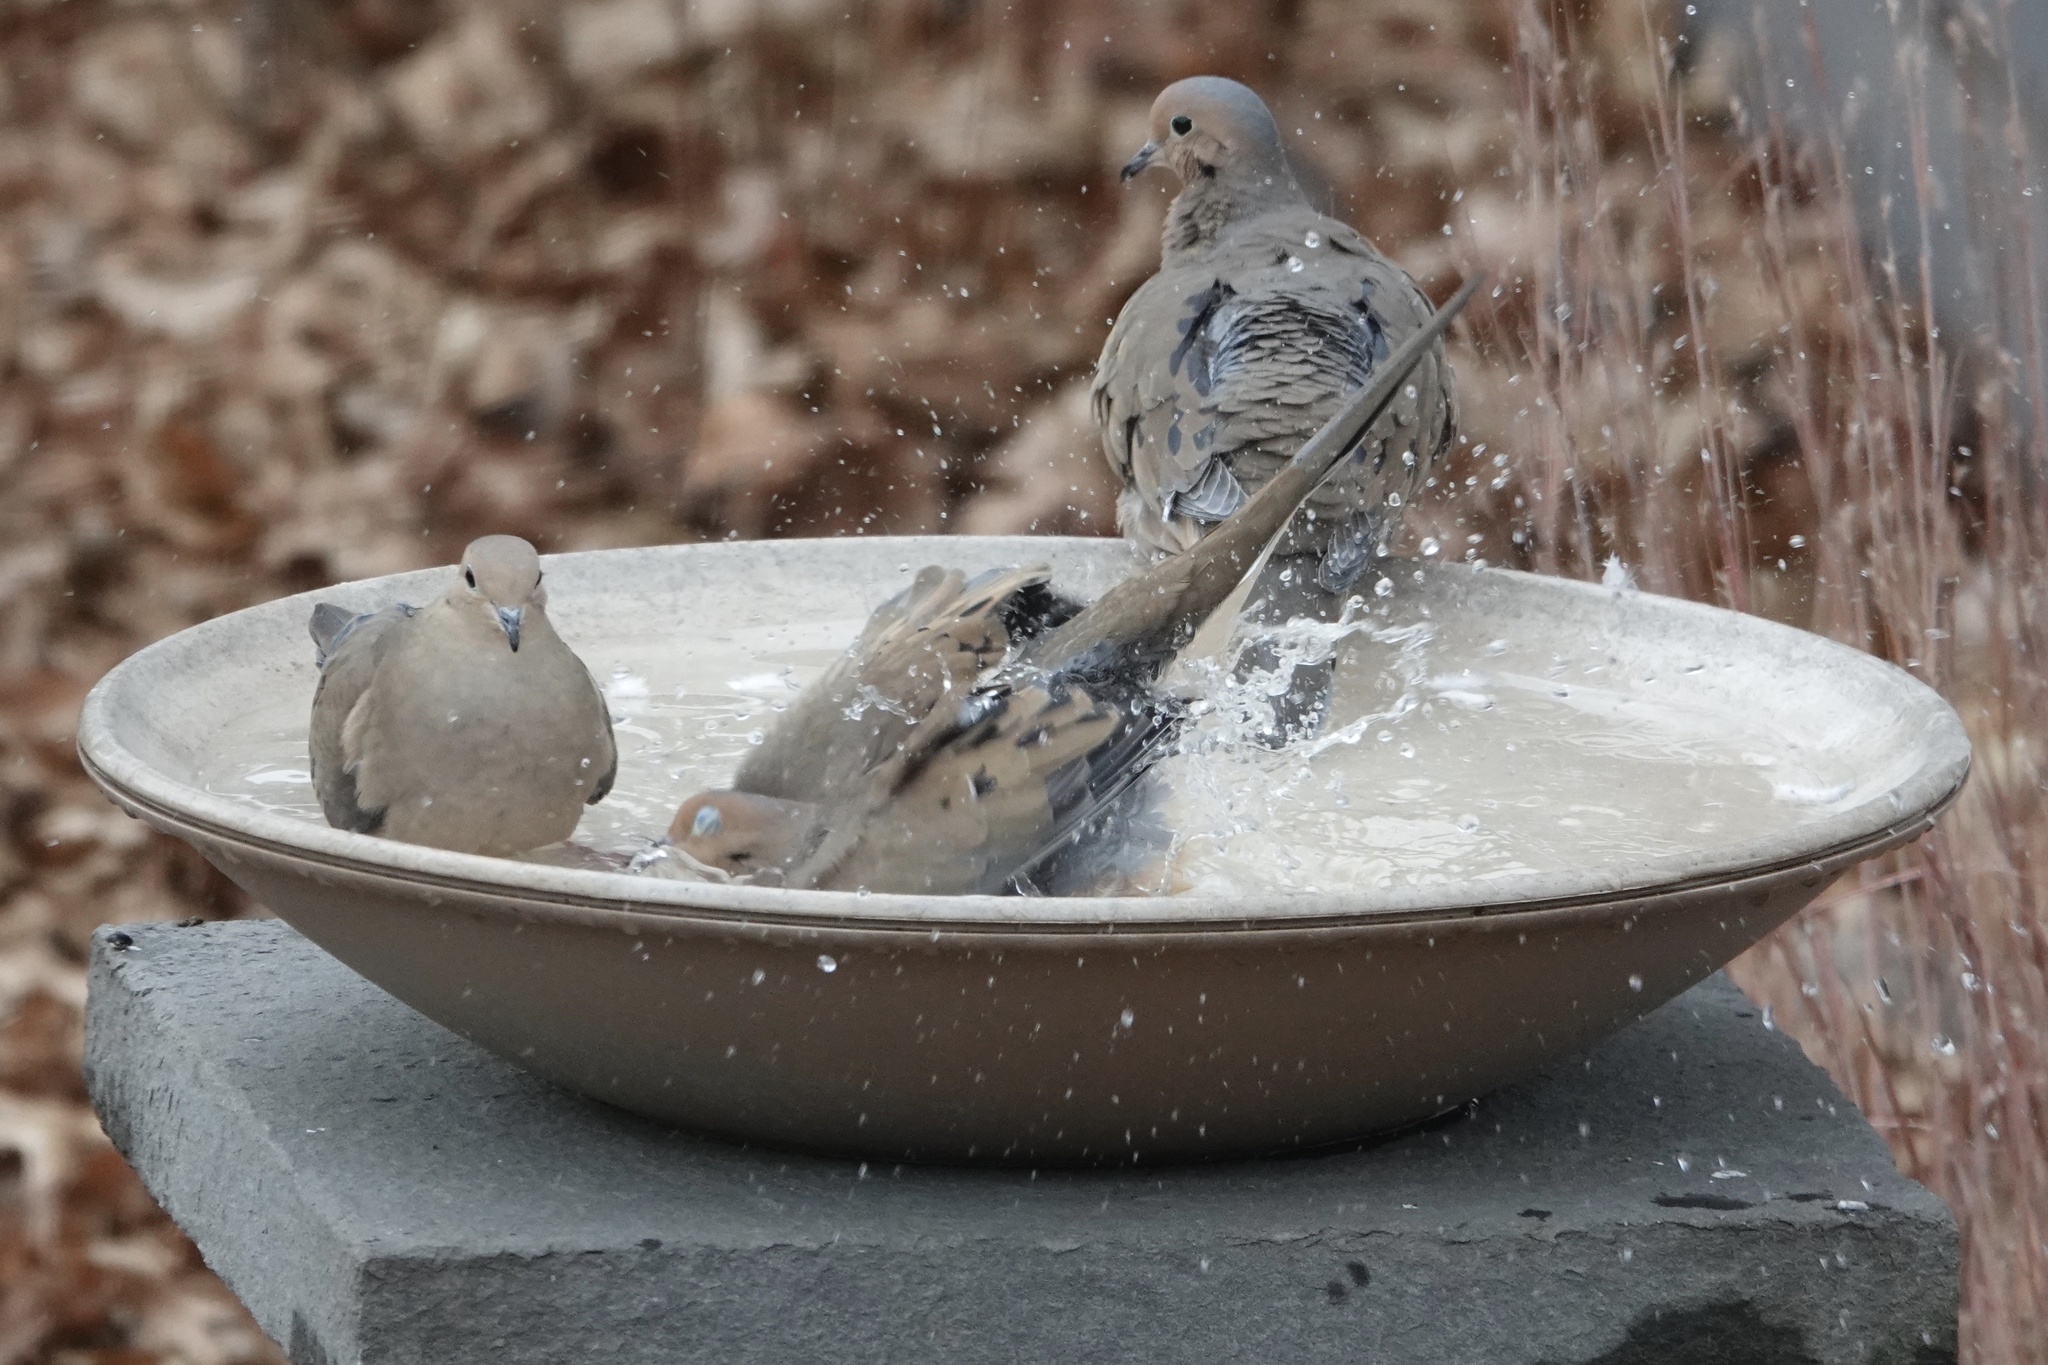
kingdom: Animalia
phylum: Chordata
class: Aves
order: Columbiformes
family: Columbidae
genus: Zenaida
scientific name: Zenaida macroura
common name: Mourning dove
